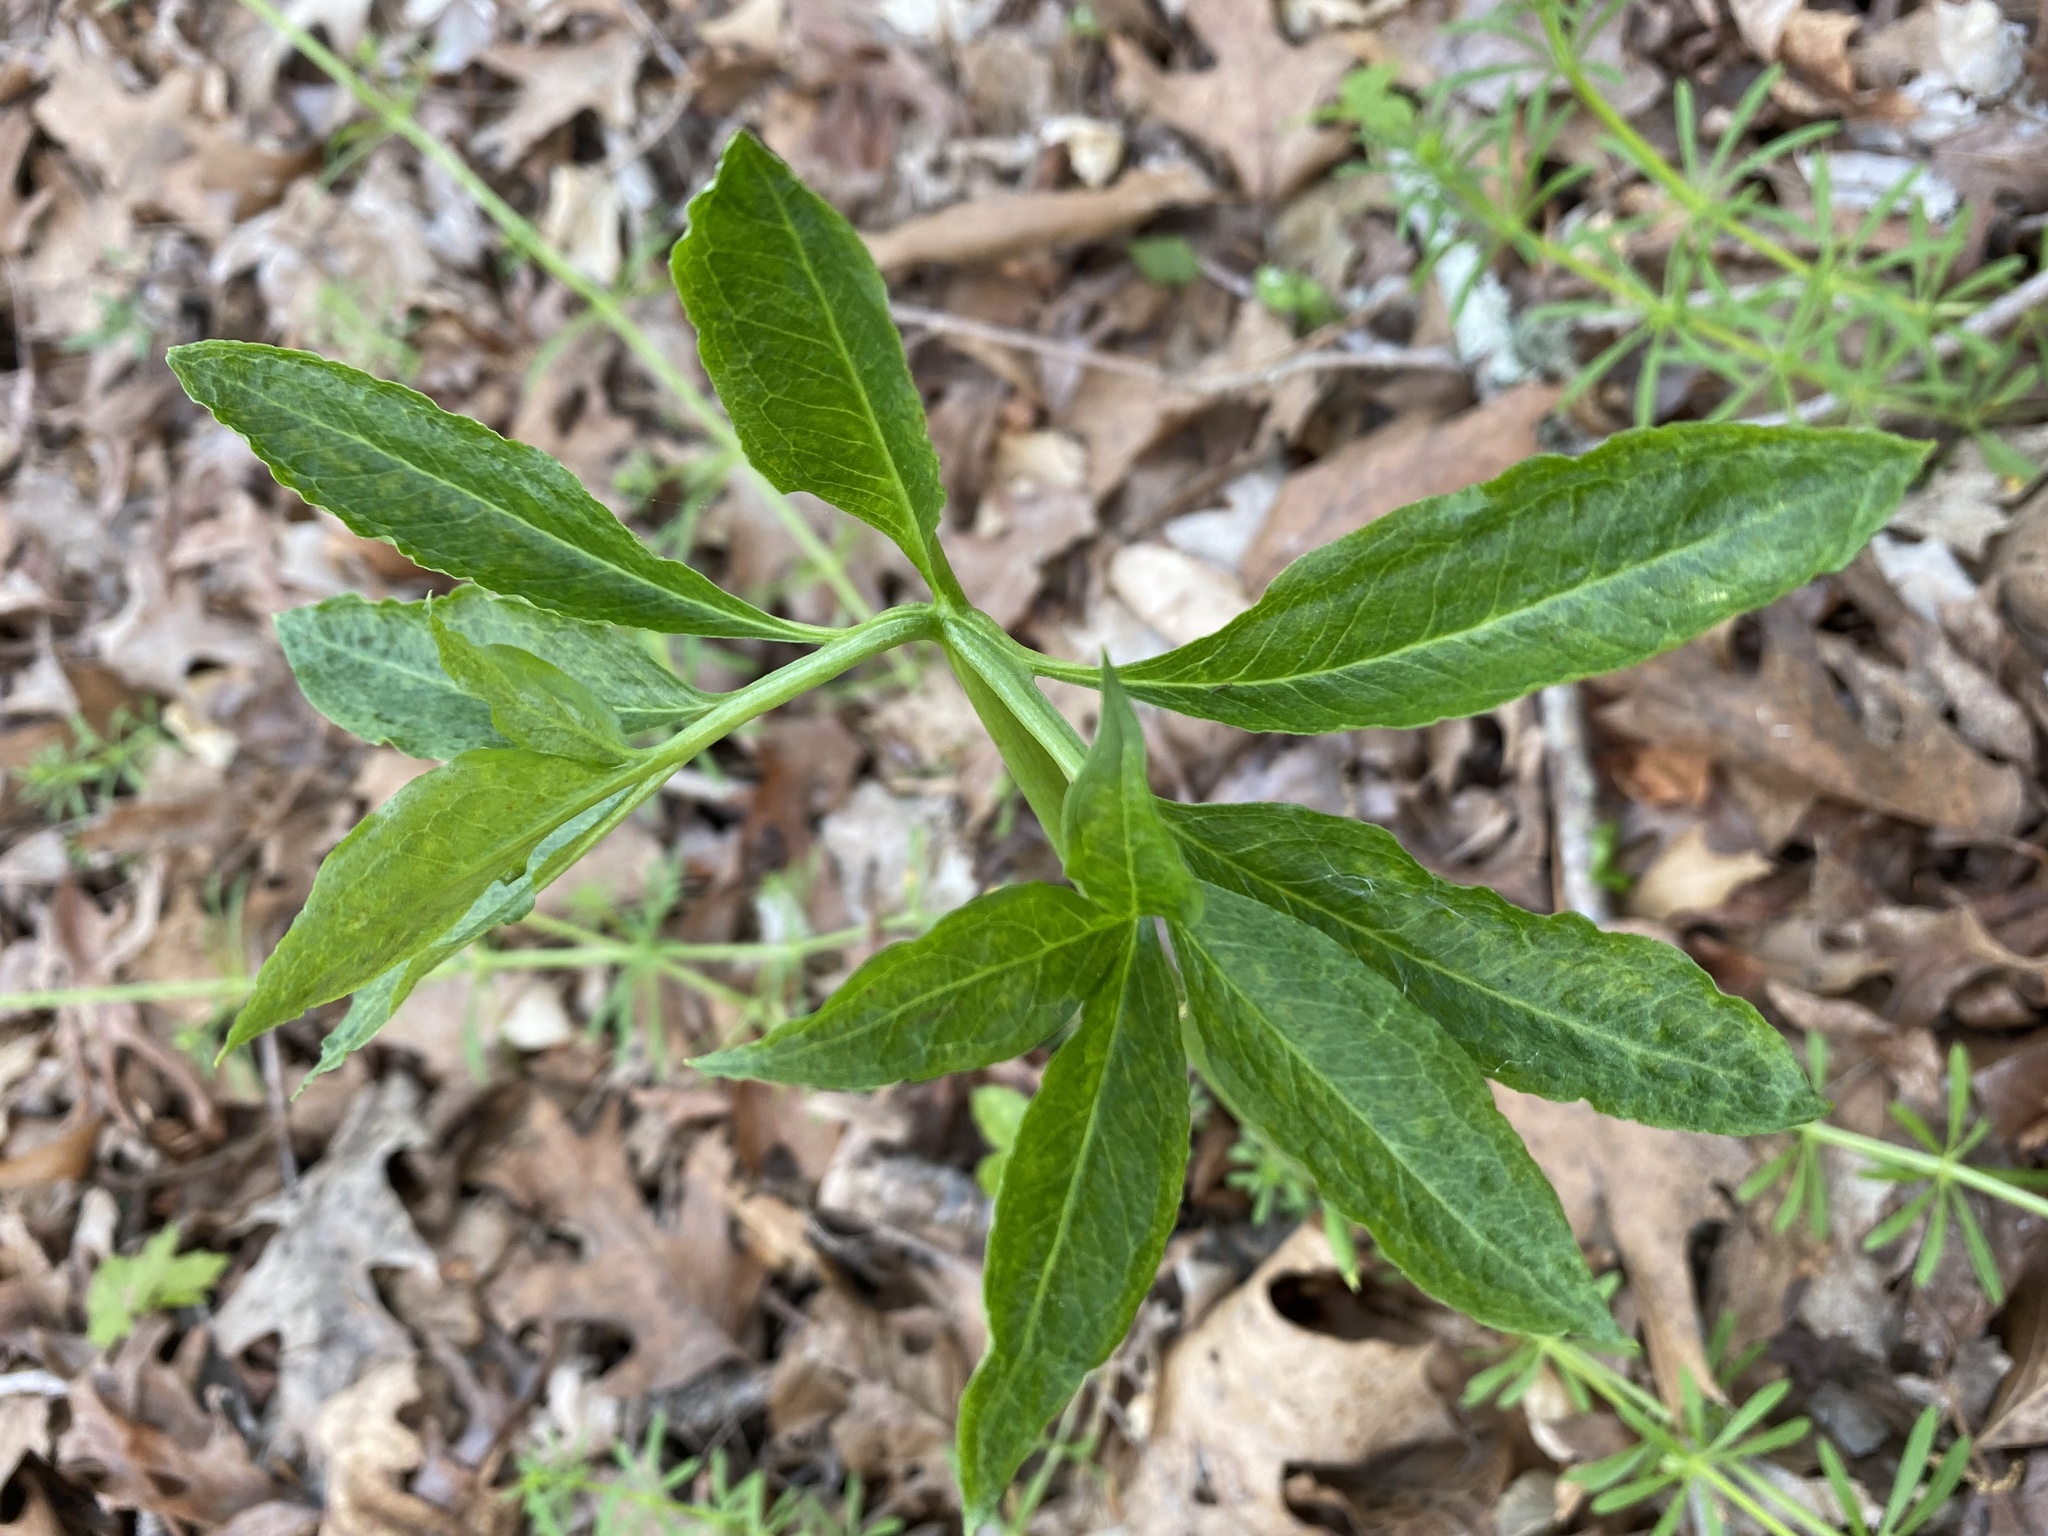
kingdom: Plantae
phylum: Tracheophyta
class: Liliopsida
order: Alismatales
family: Araceae
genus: Arisaema
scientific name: Arisaema dracontium
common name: Dragon-arum
